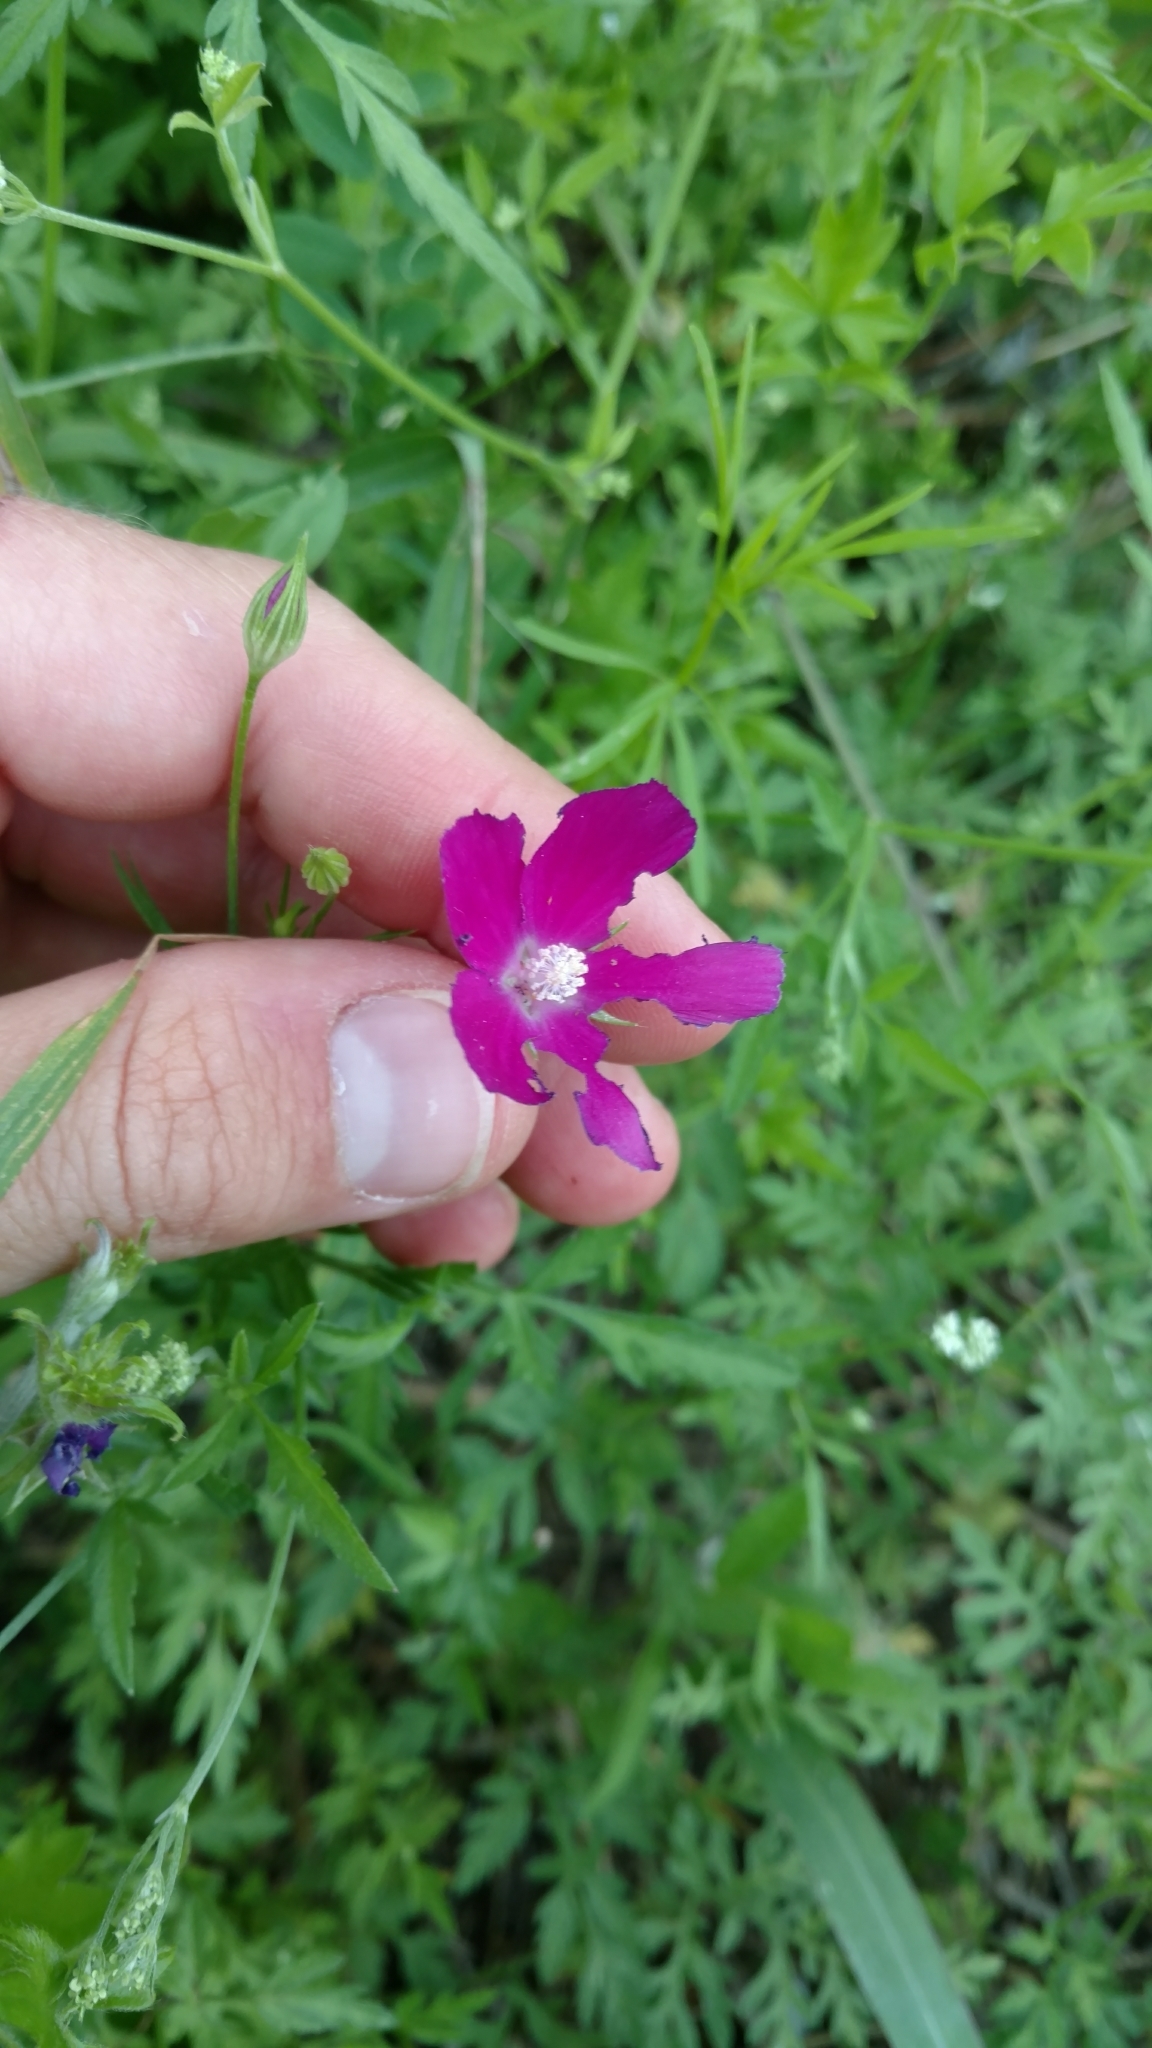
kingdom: Plantae
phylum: Tracheophyta
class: Magnoliopsida
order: Malvales
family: Malvaceae
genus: Callirhoe
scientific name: Callirhoe leiocarpa
